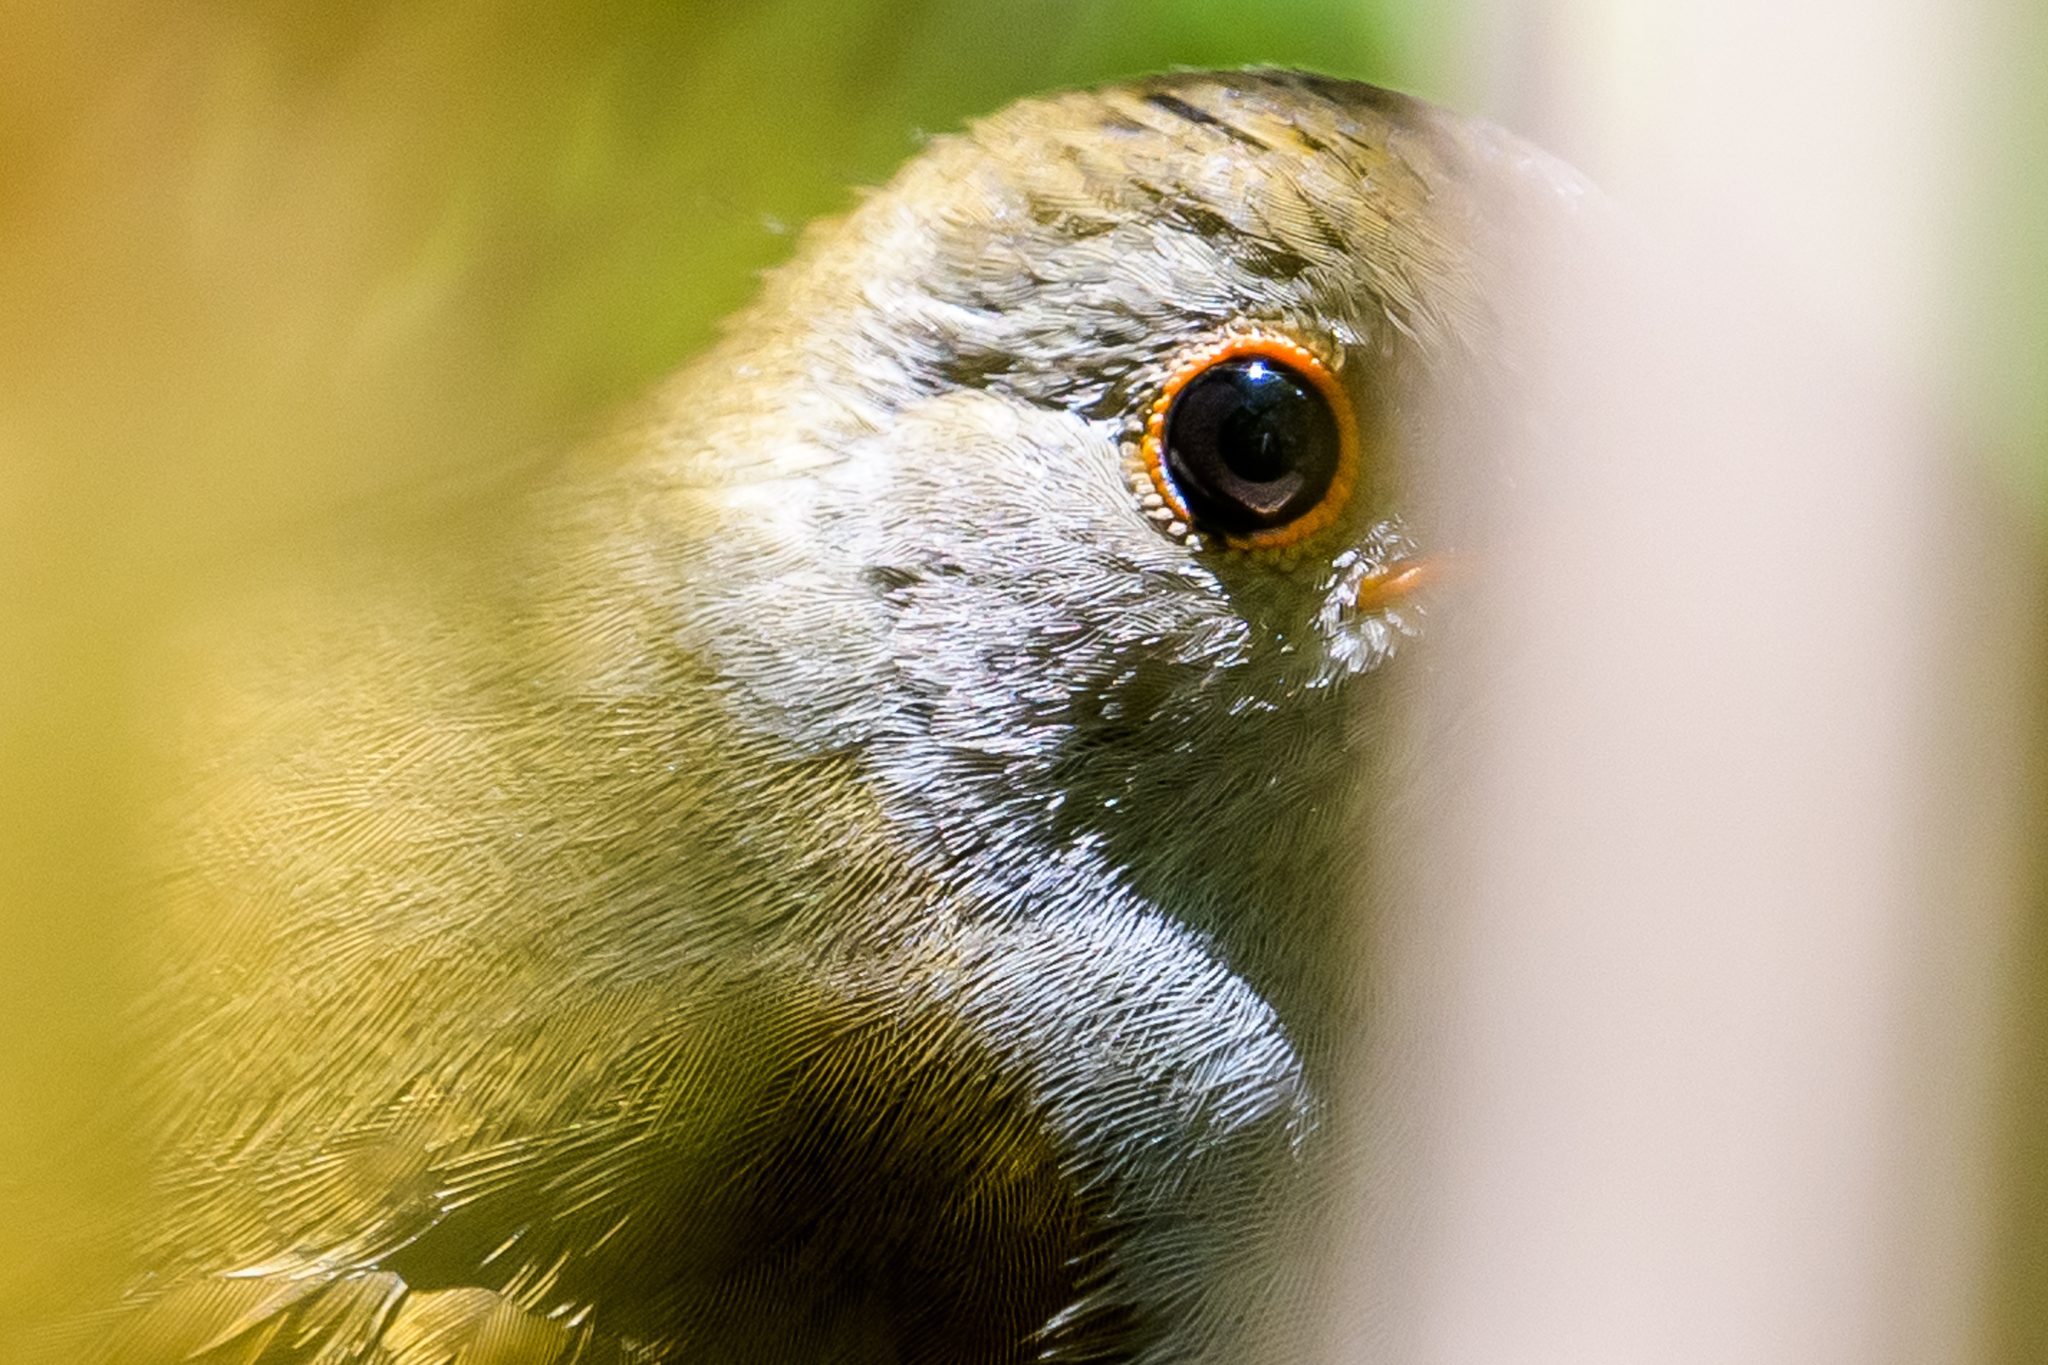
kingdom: Animalia
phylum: Chordata
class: Aves
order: Passeriformes
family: Turdidae
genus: Catharus
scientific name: Catharus aurantiirostris
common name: Orange-billed nightingale-thrush
